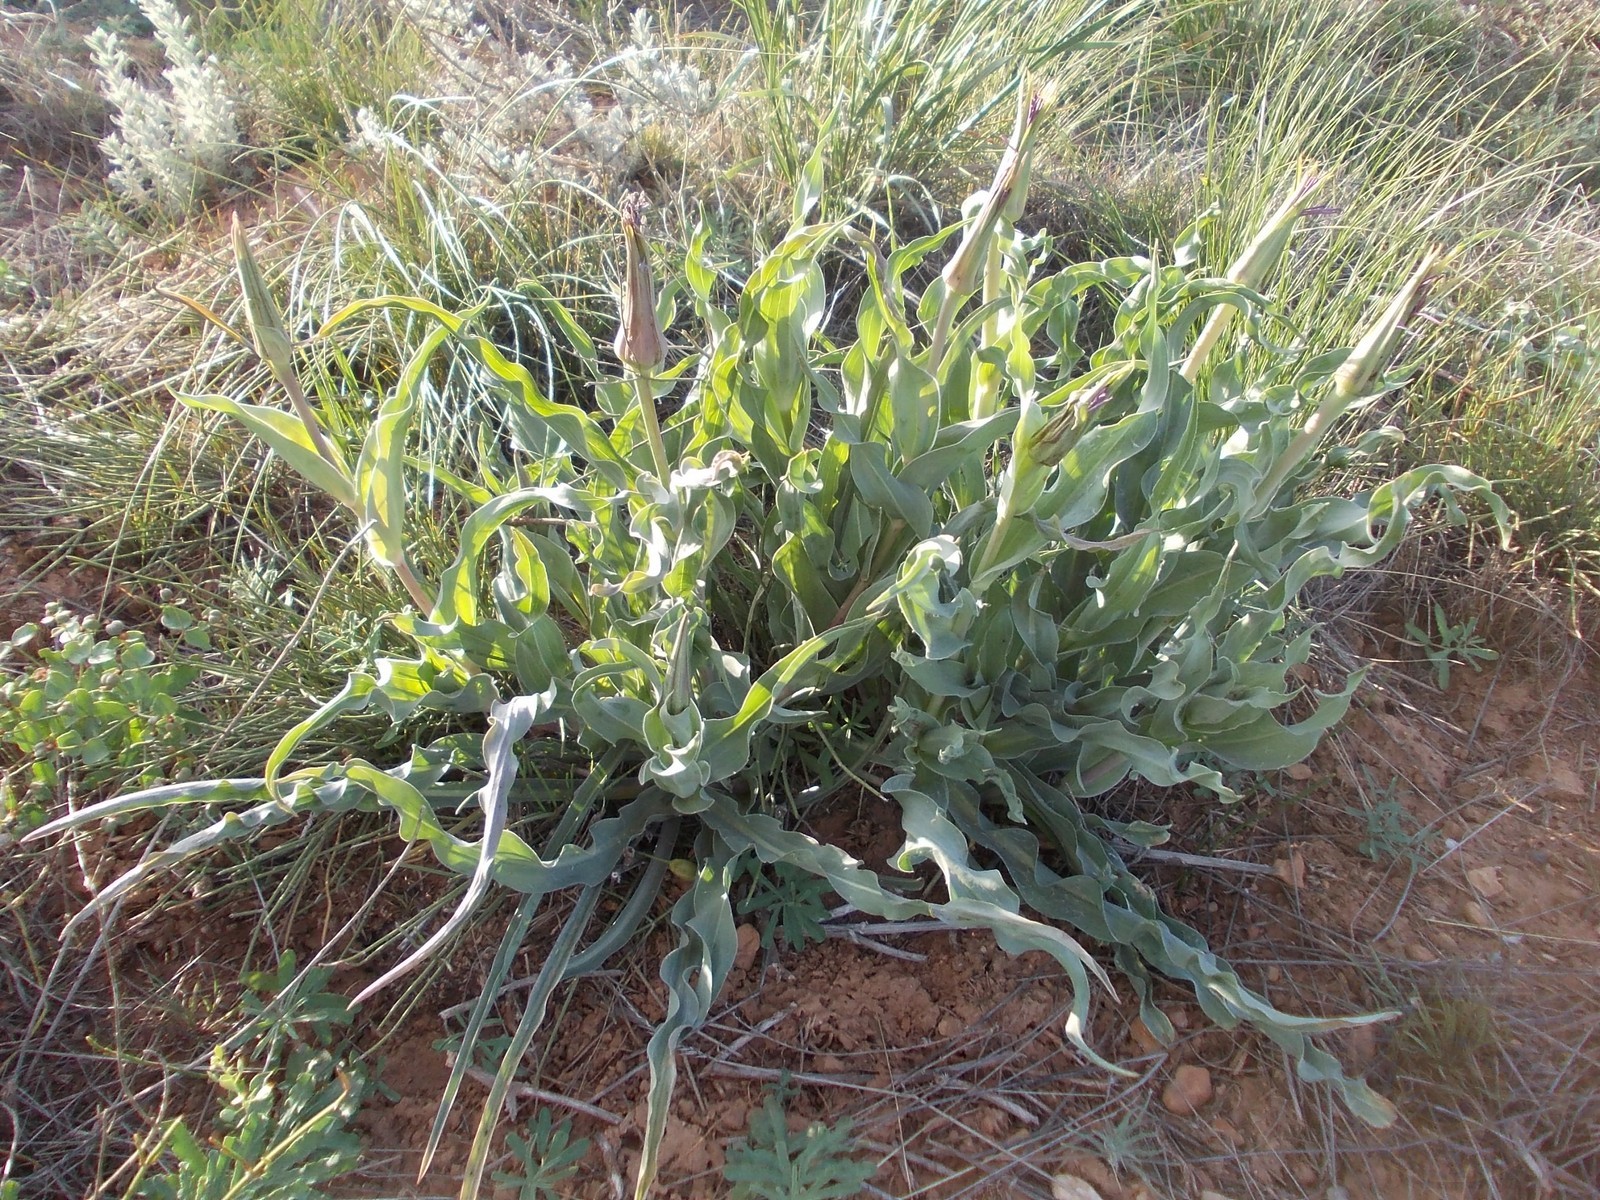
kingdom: Plantae
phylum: Tracheophyta
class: Magnoliopsida
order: Asterales
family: Asteraceae
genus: Tragopogon
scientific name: Tragopogon marginifolius
